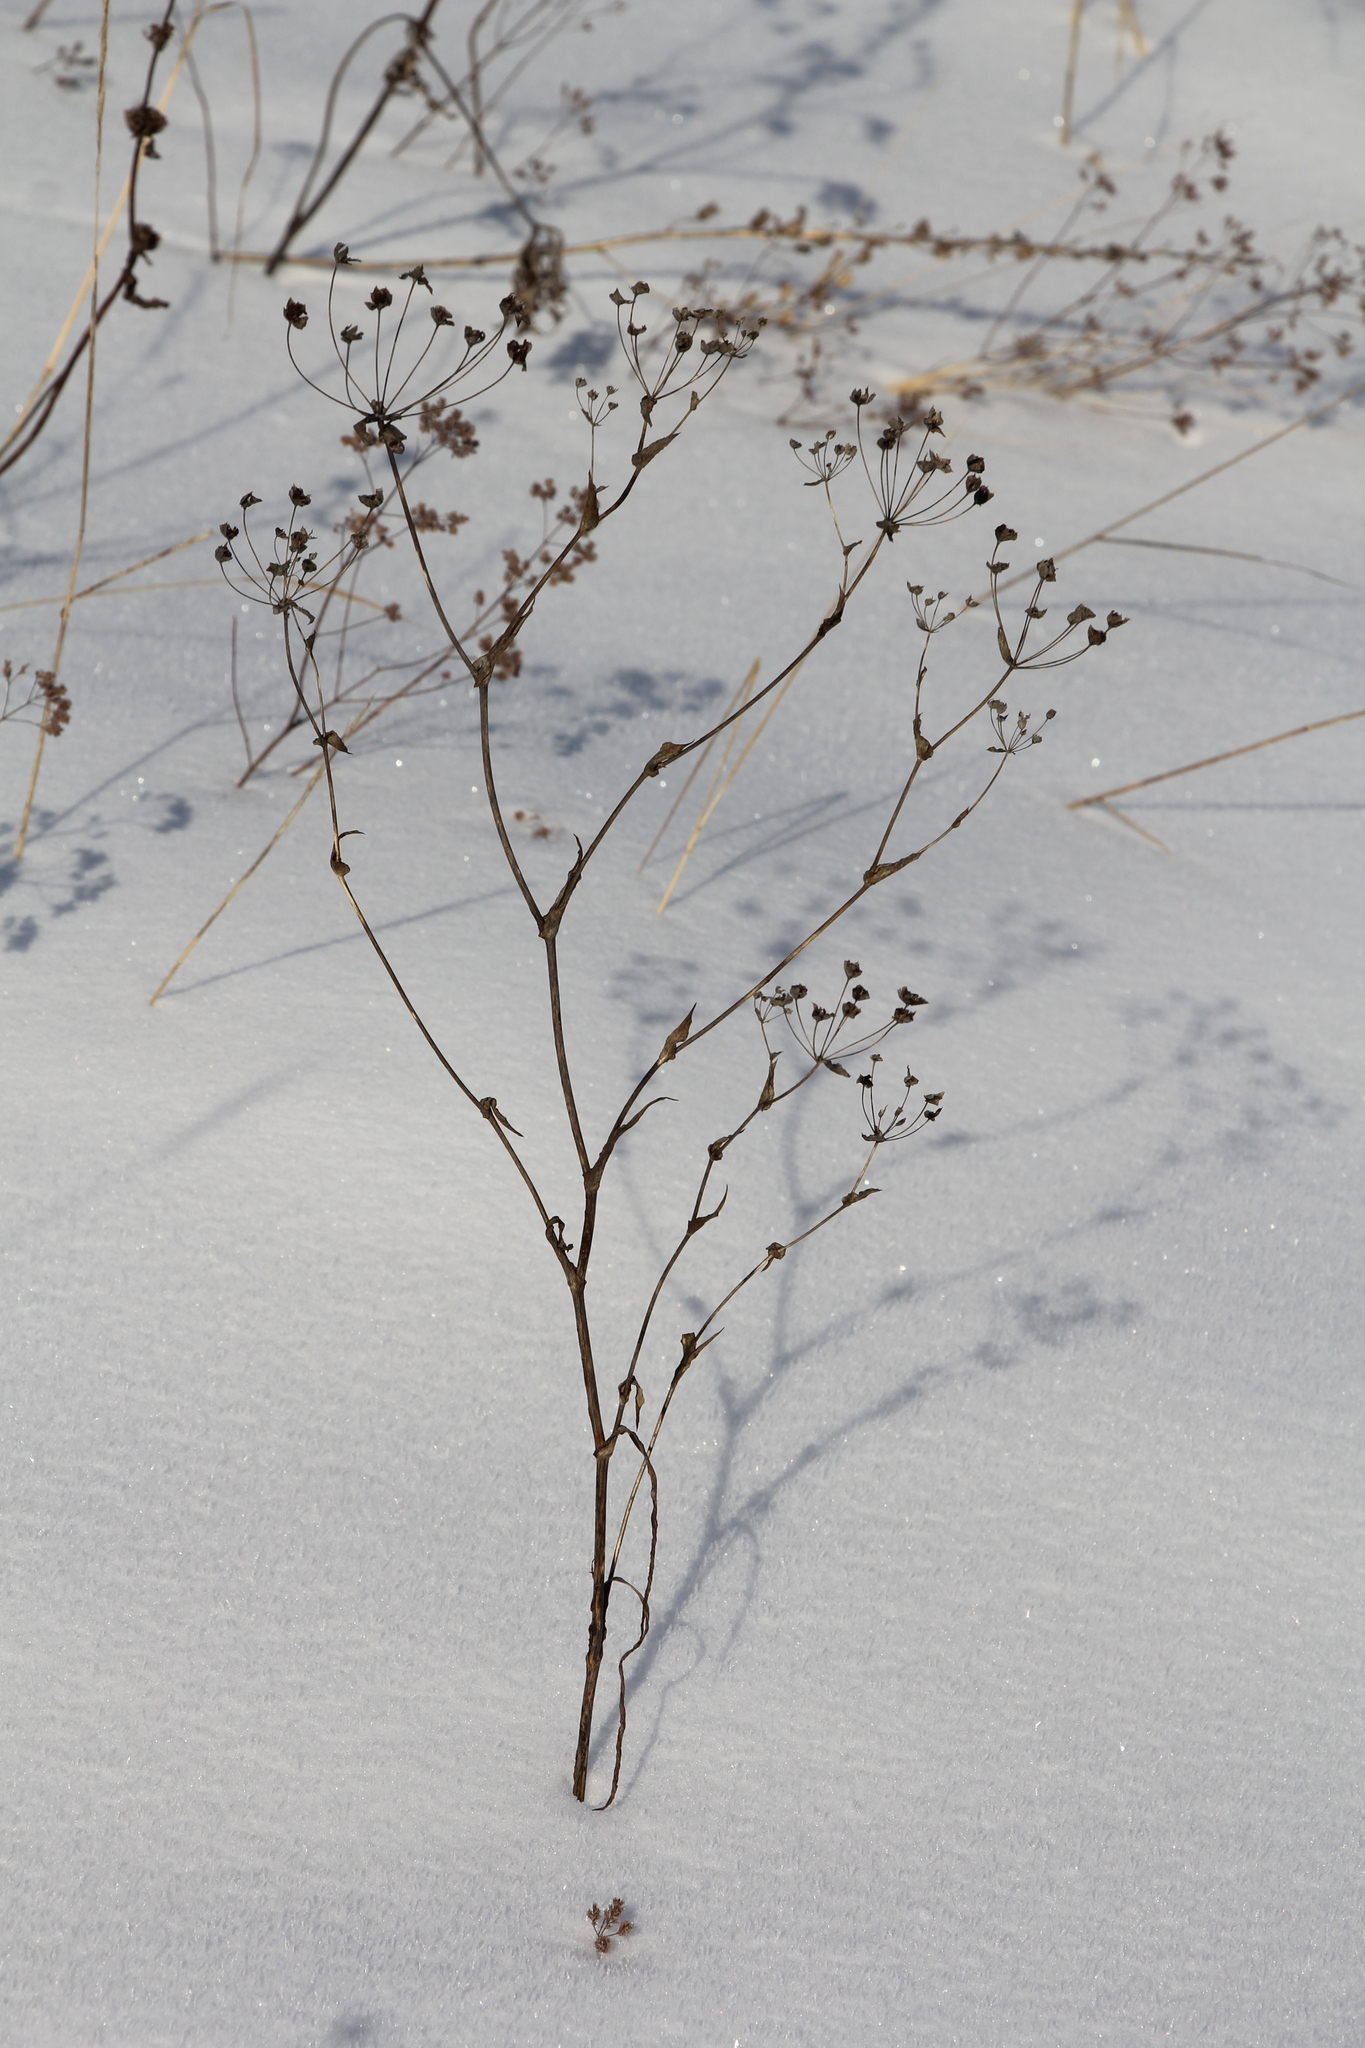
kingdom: Plantae
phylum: Tracheophyta
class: Magnoliopsida
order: Apiales
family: Apiaceae
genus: Bupleurum
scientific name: Bupleurum multinerve
